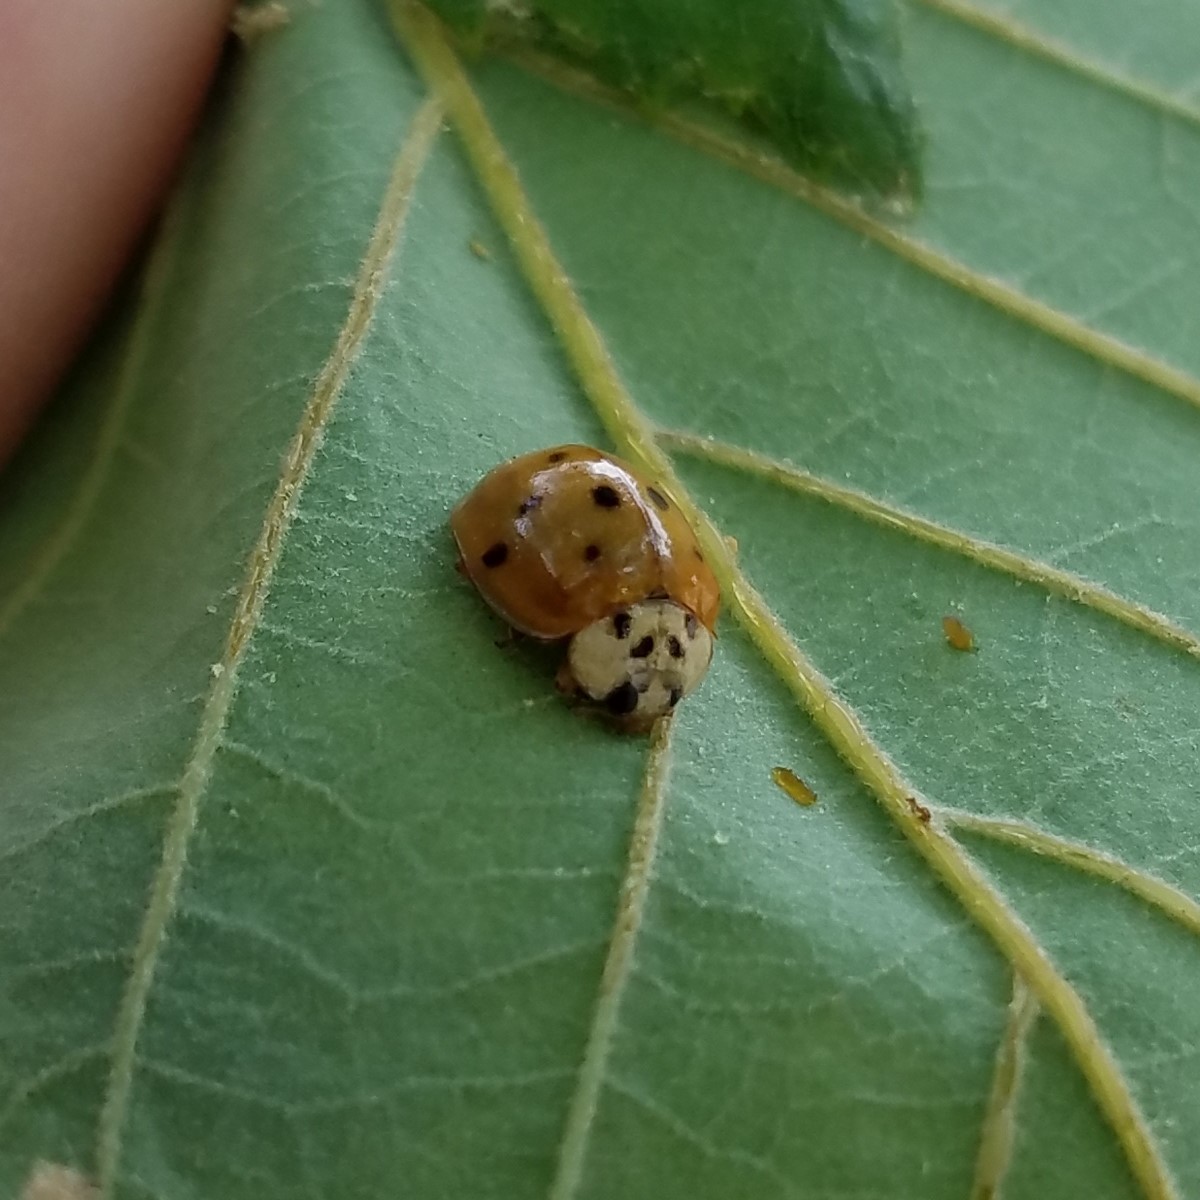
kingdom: Animalia
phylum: Arthropoda
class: Insecta
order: Coleoptera
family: Coccinellidae
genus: Harmonia
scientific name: Harmonia axyridis
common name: Harlequin ladybird
